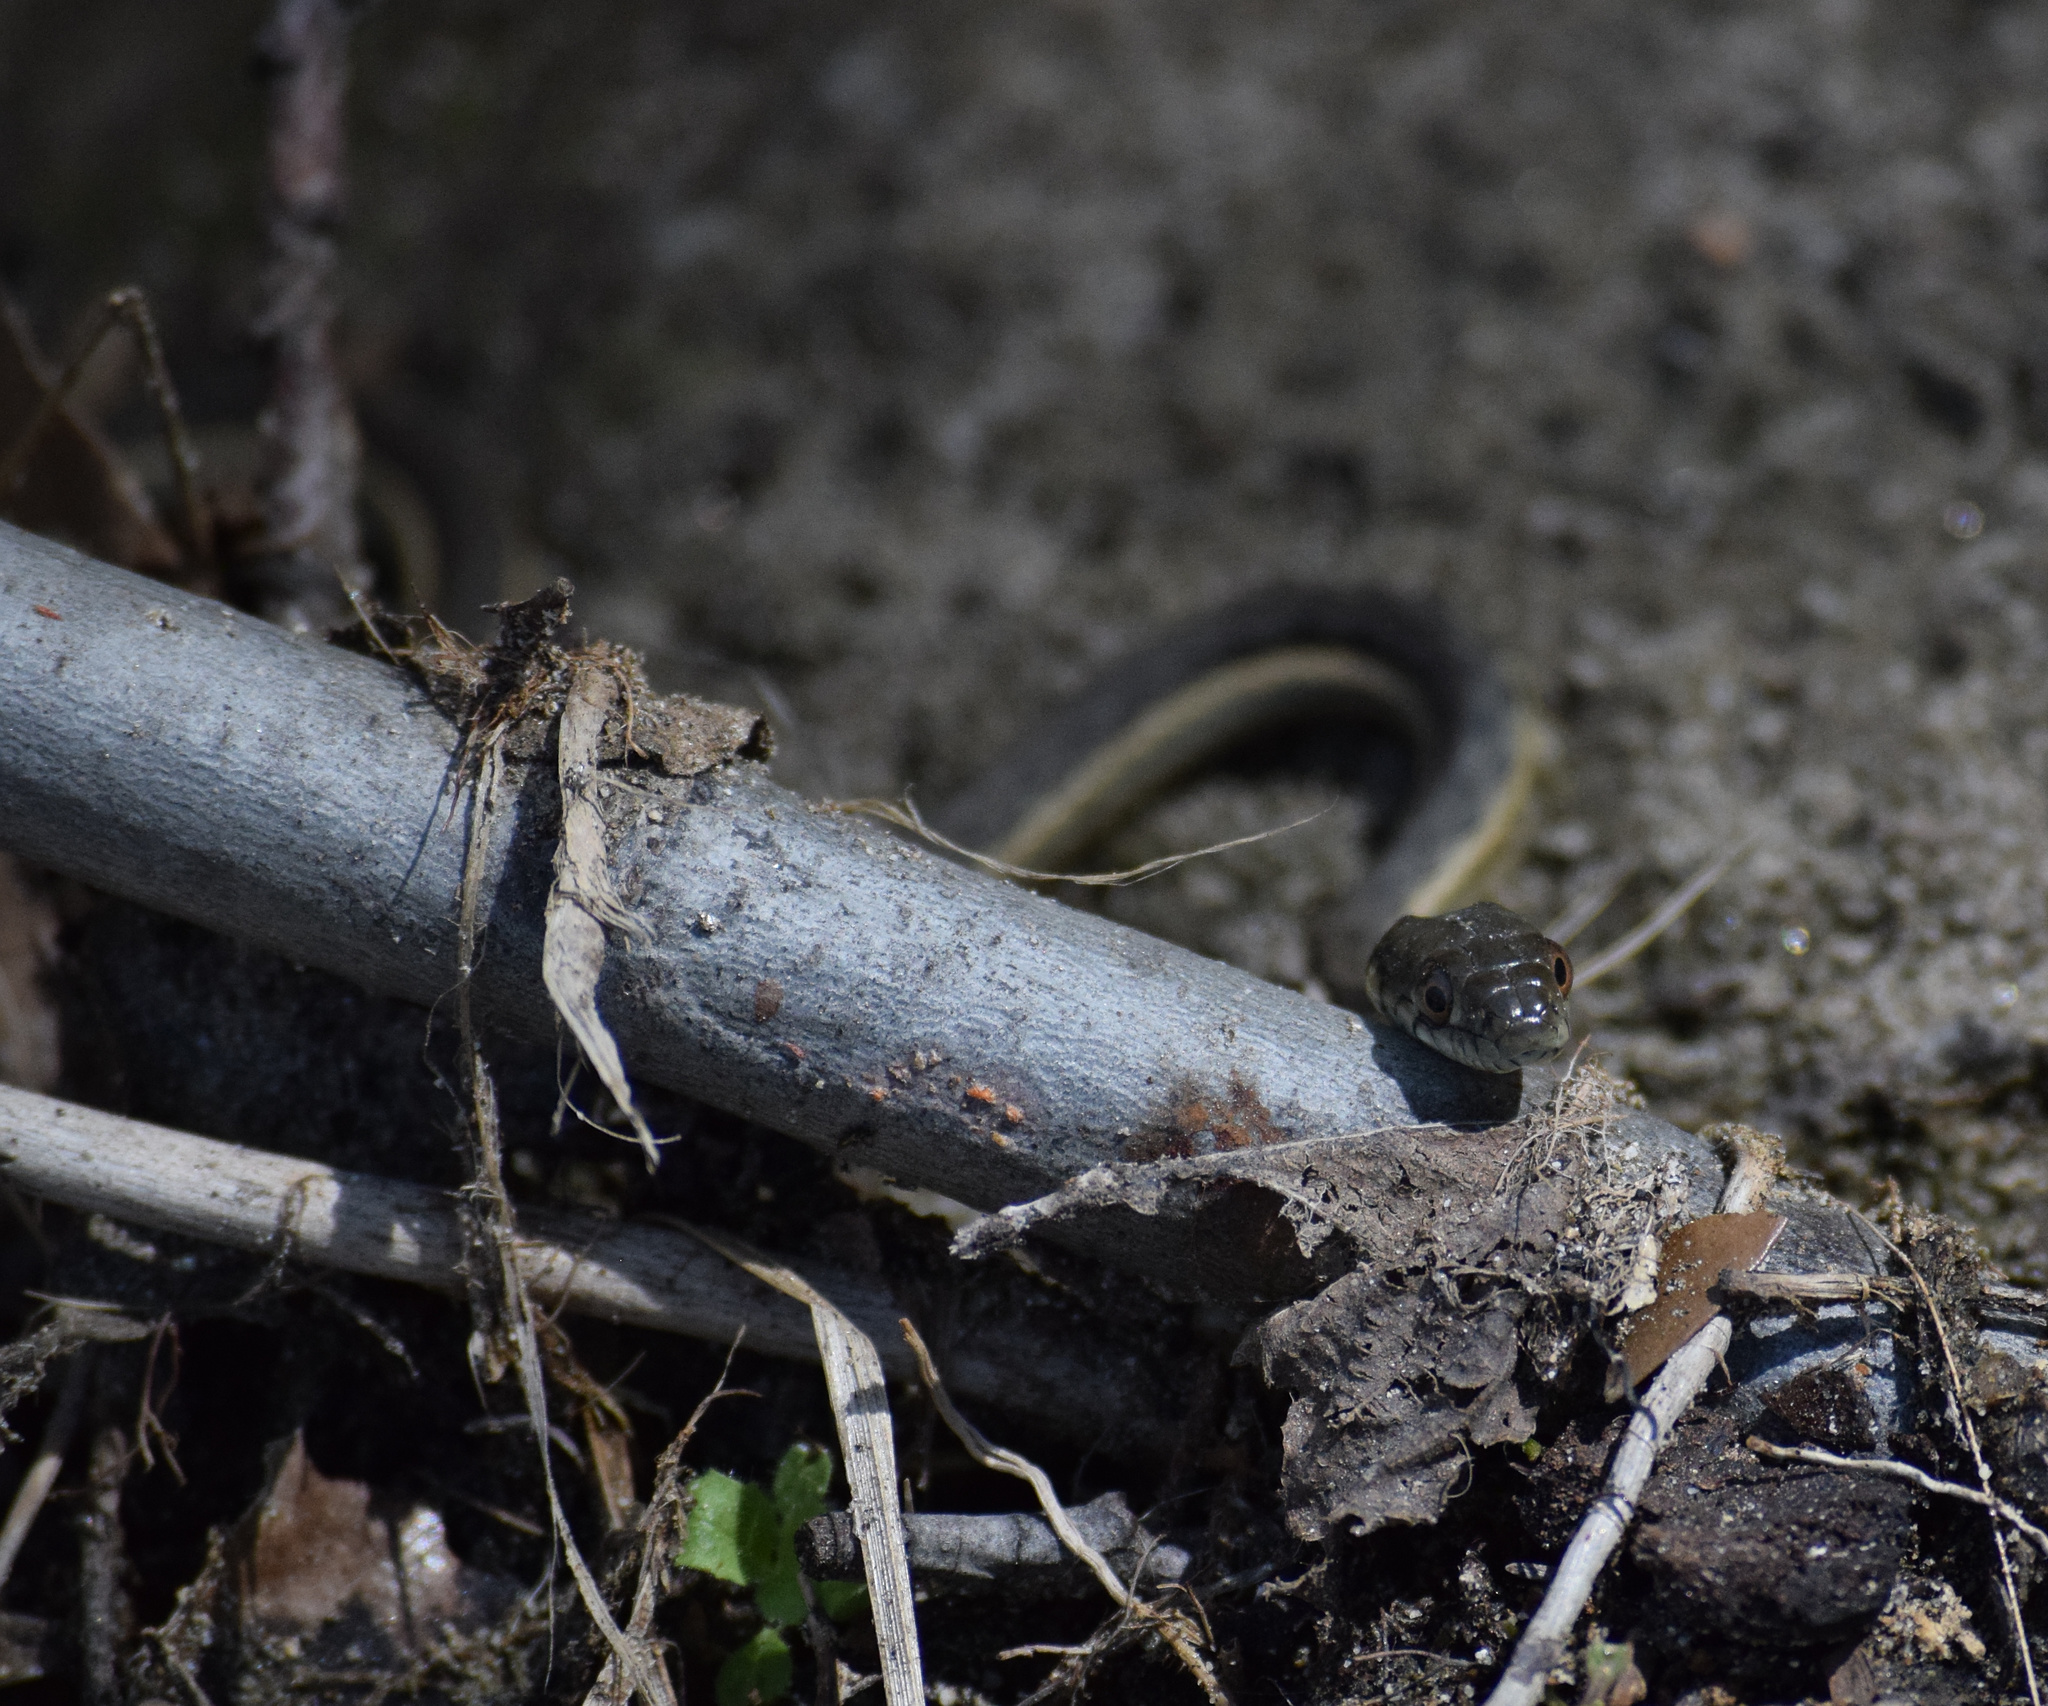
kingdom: Animalia
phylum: Chordata
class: Squamata
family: Colubridae
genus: Thamnophis
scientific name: Thamnophis hammondii
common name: Two-striped garter snake
